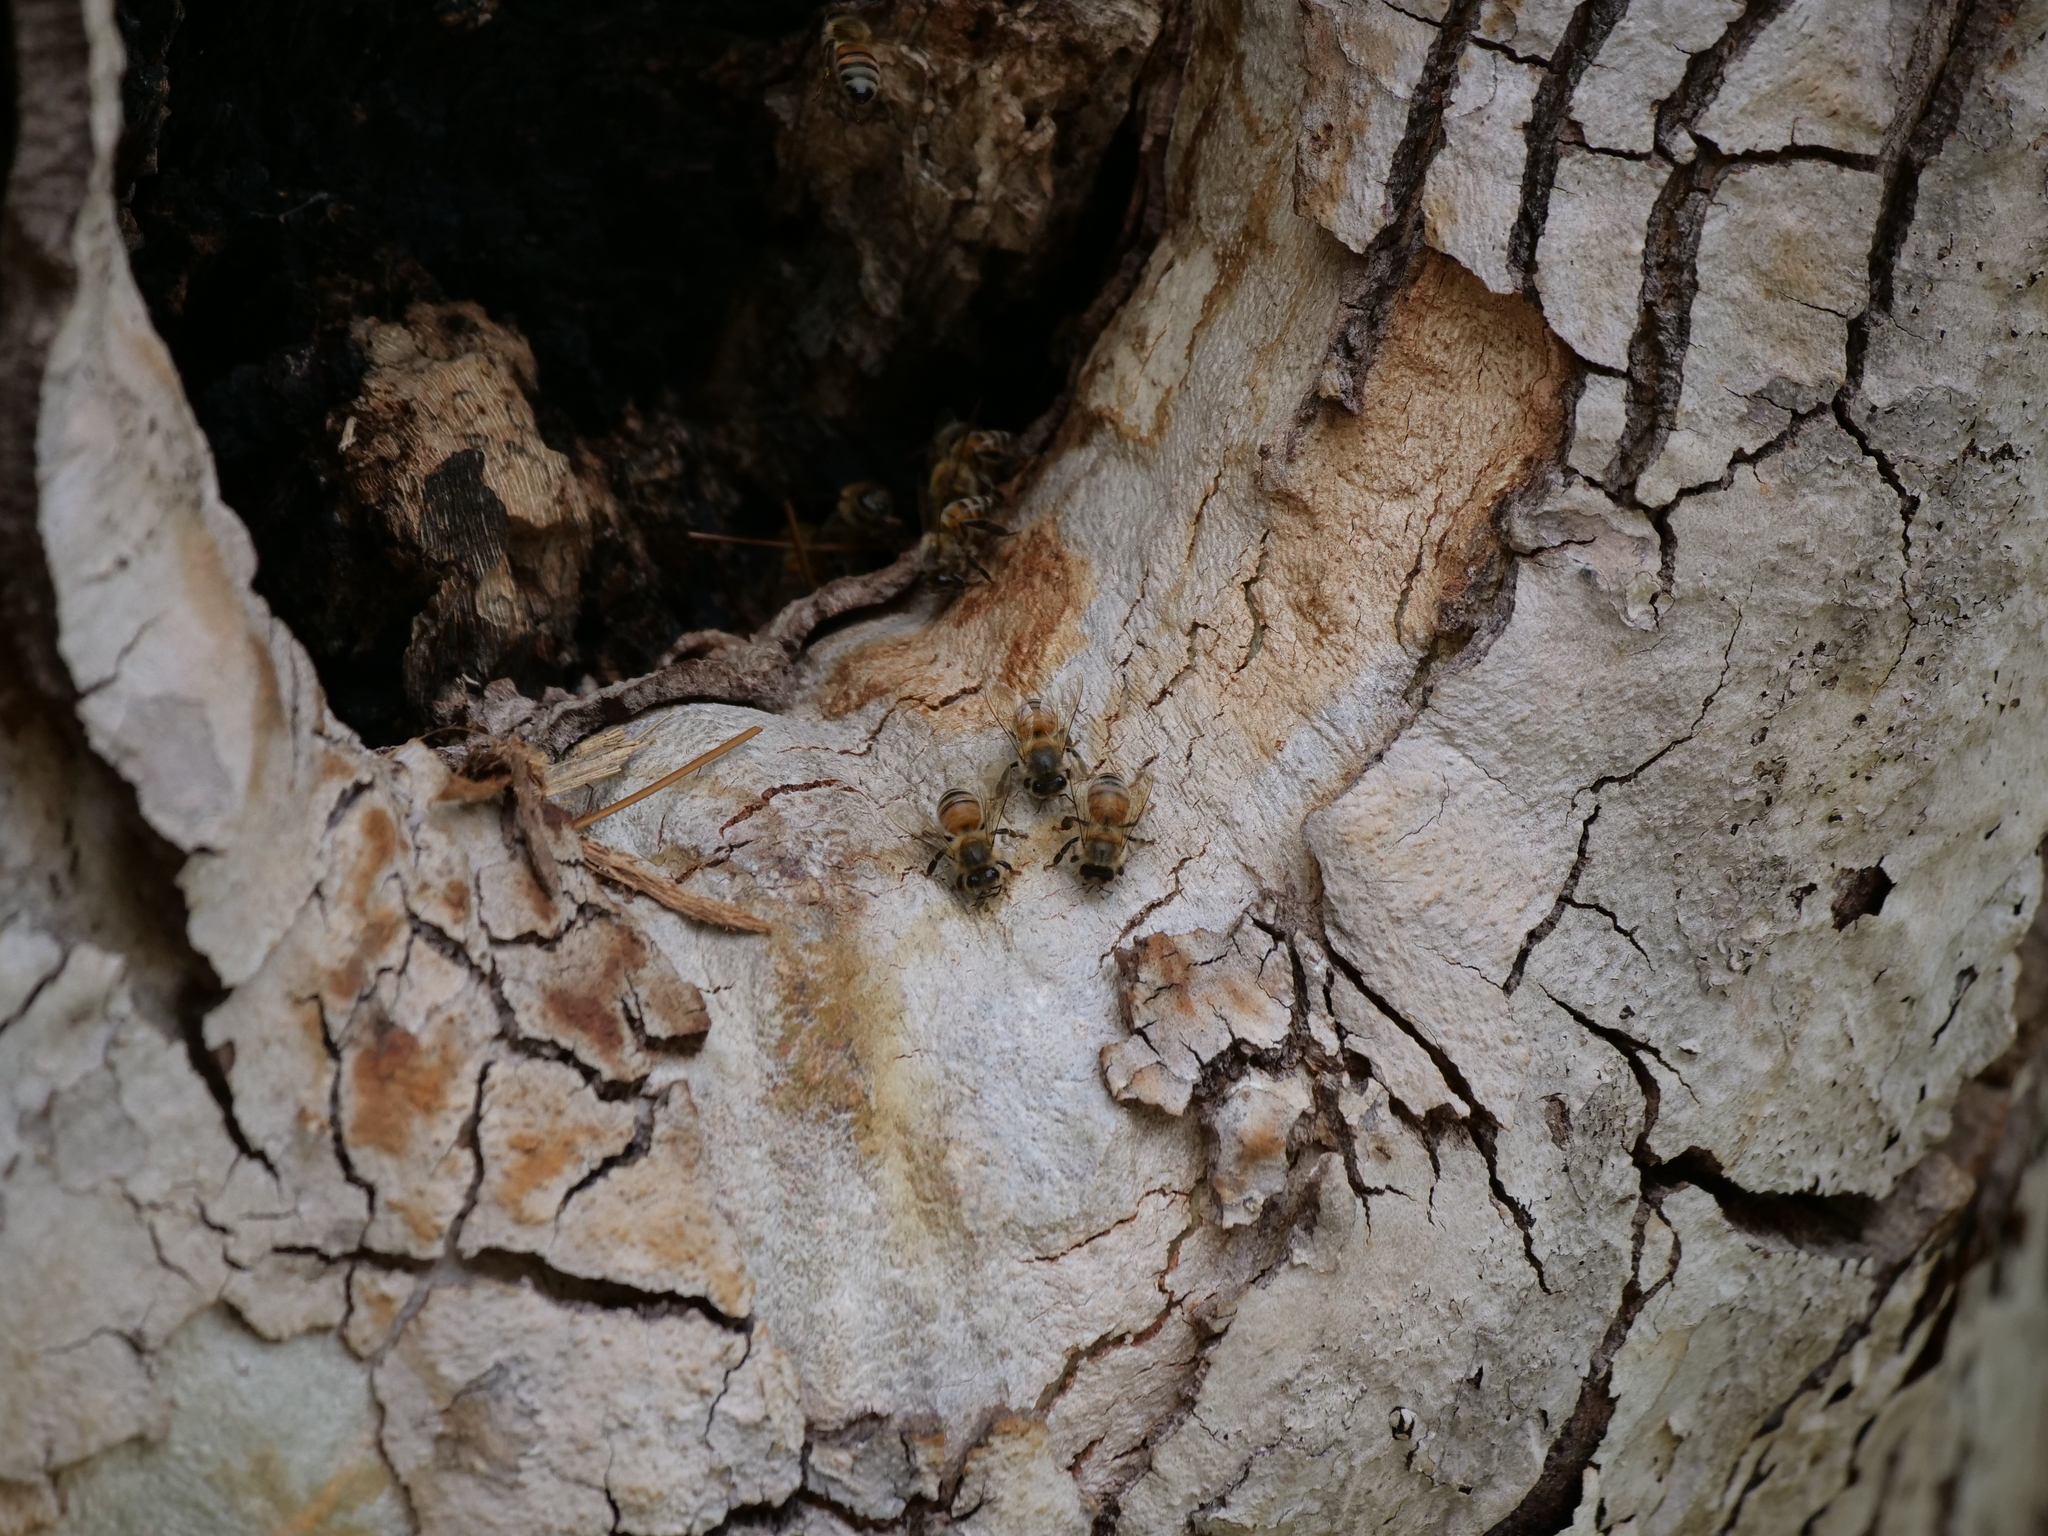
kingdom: Animalia
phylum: Arthropoda
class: Insecta
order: Hymenoptera
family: Apidae
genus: Apis
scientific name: Apis mellifera
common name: Honey bee
